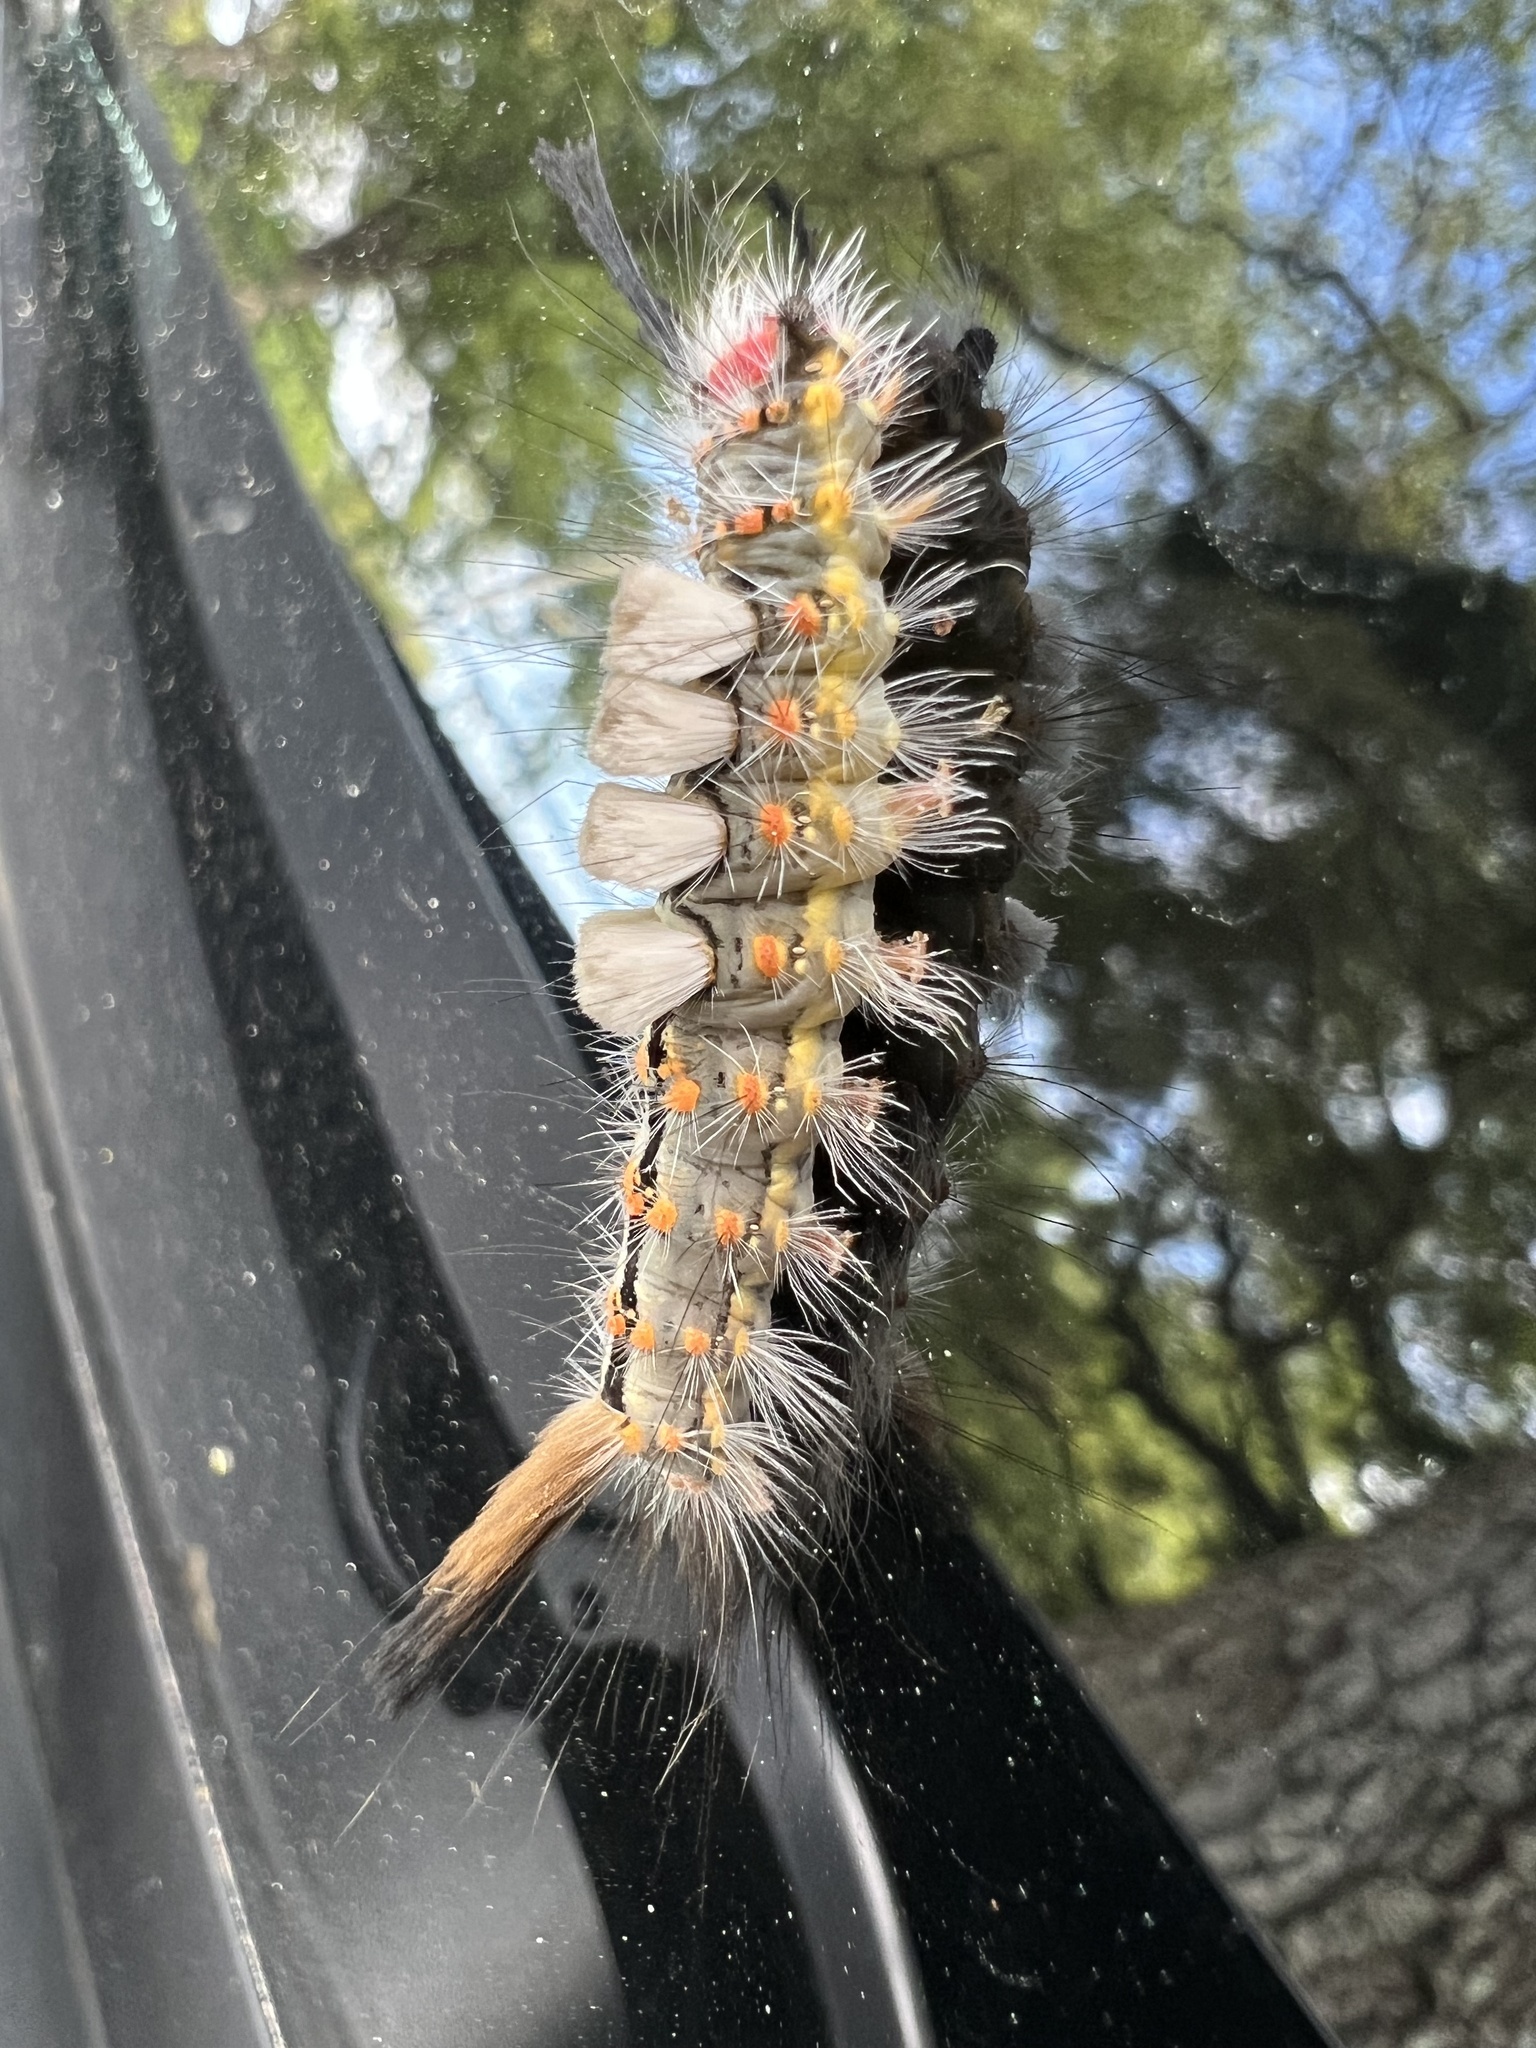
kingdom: Animalia
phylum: Arthropoda
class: Insecta
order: Lepidoptera
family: Erebidae
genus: Orgyia
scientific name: Orgyia detrita
